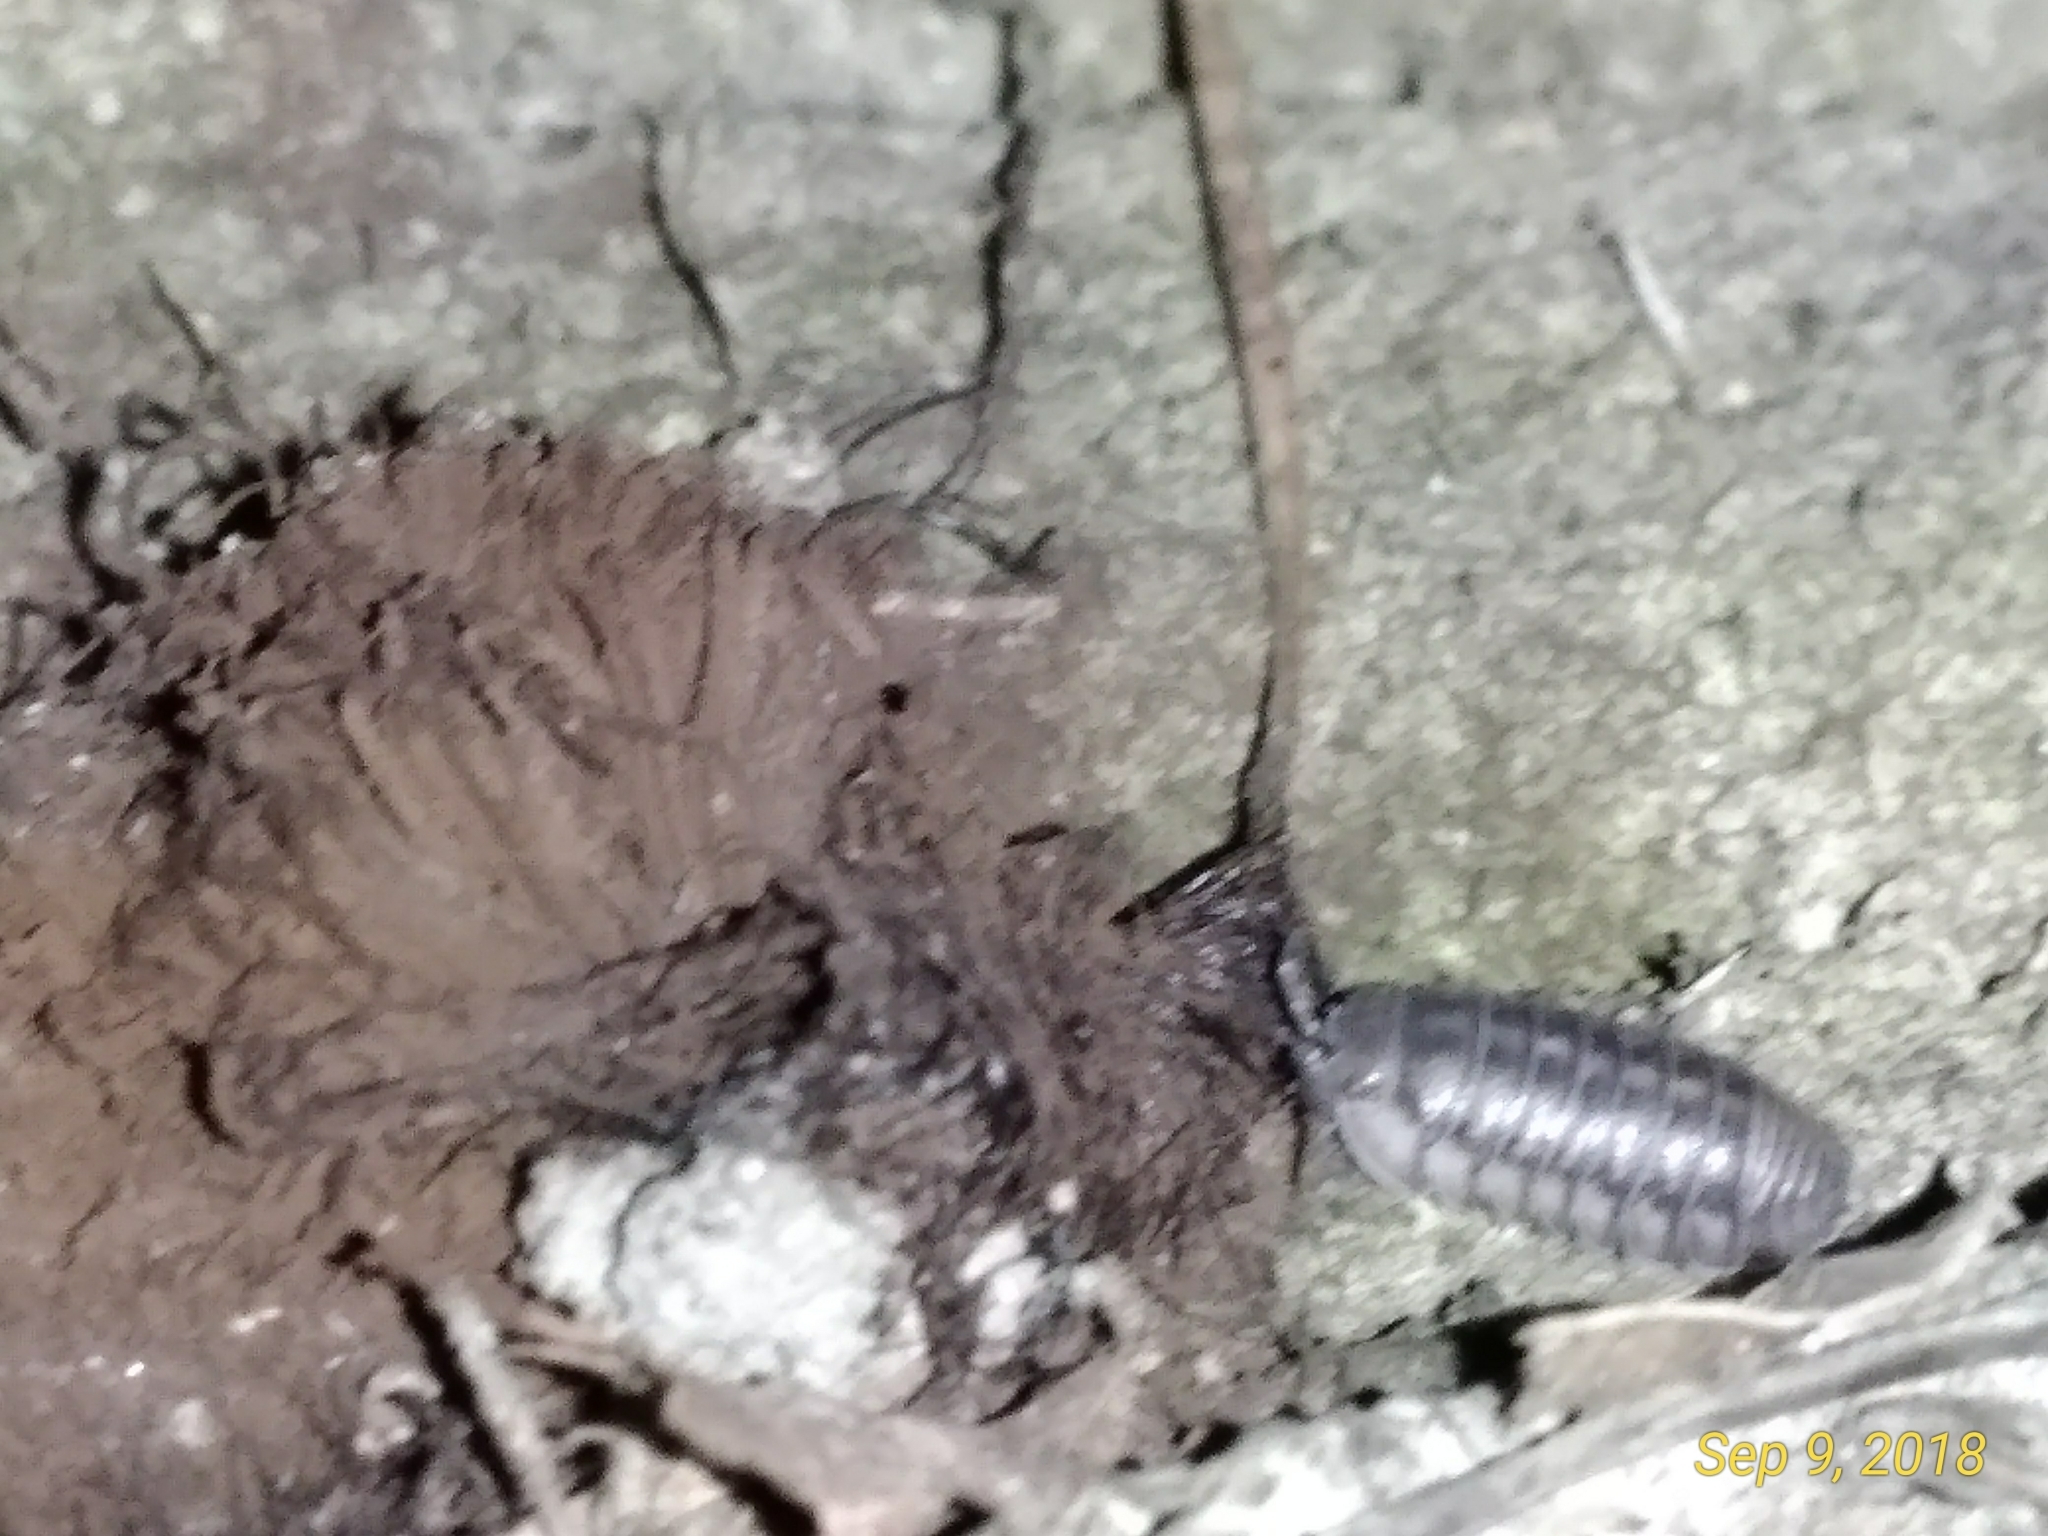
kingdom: Animalia
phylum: Arthropoda
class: Malacostraca
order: Isopoda
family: Armadillidiidae
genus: Armadillidium
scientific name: Armadillidium nasatum
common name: Isopod
